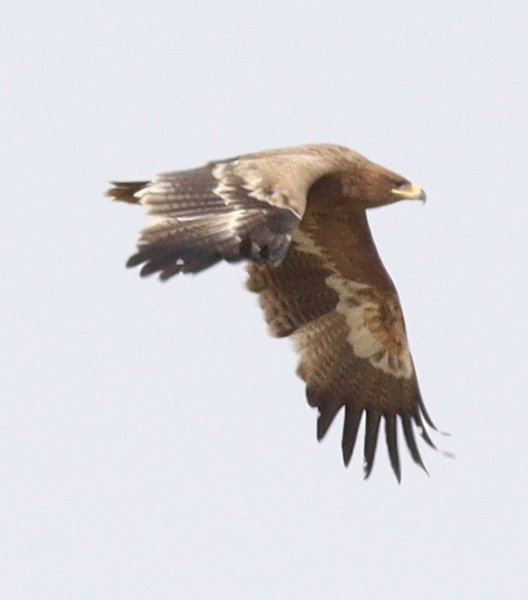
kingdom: Animalia
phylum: Chordata
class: Aves
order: Accipitriformes
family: Accipitridae
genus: Aquila
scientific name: Aquila nipalensis
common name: Steppe eagle
